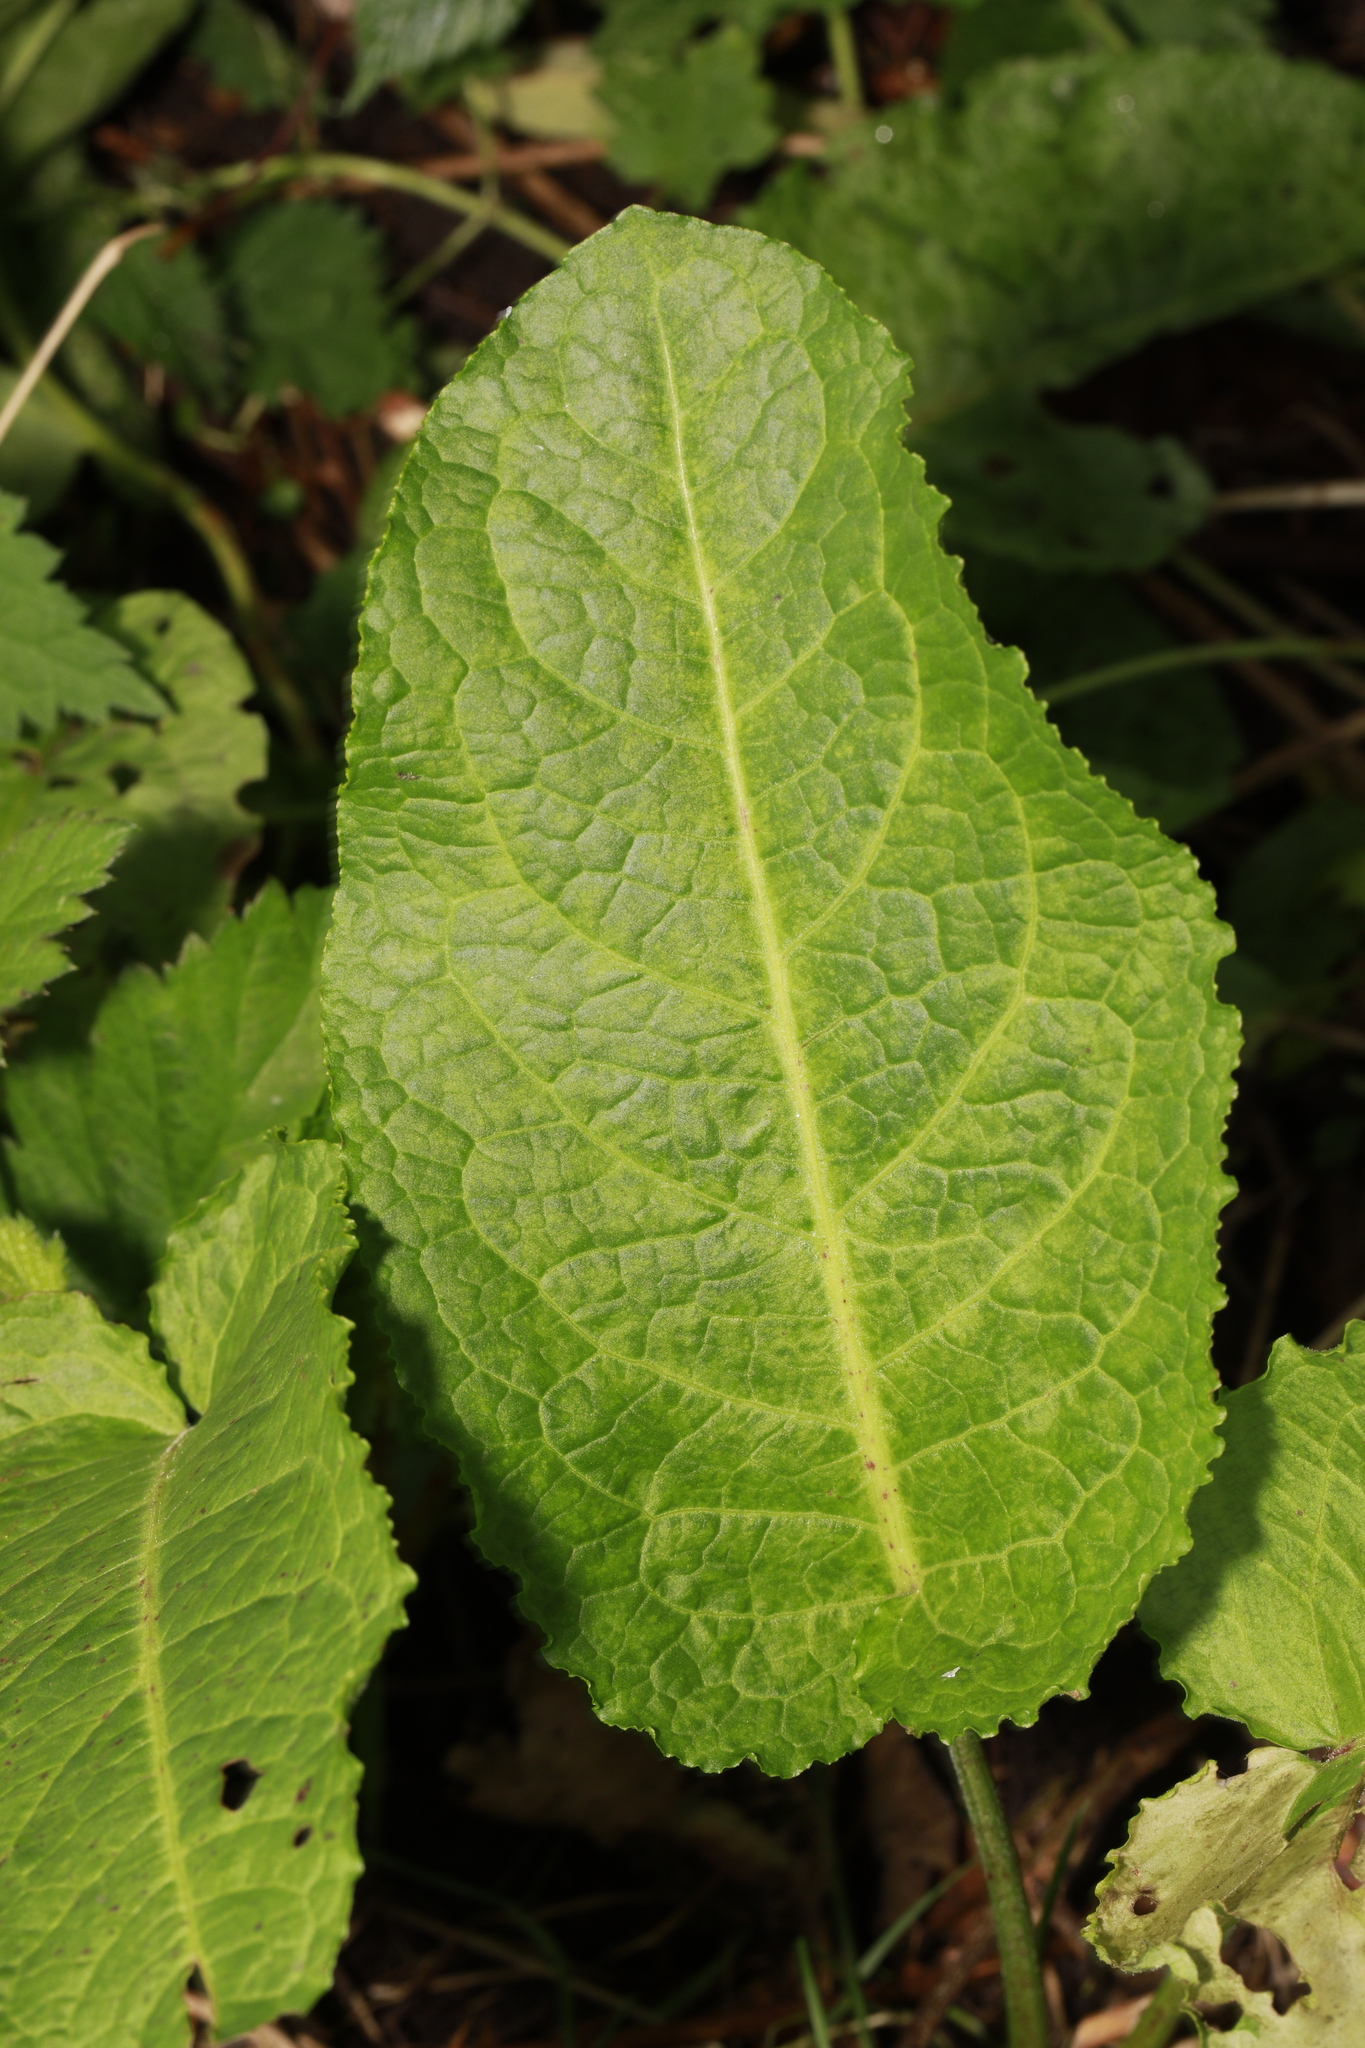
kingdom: Plantae
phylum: Tracheophyta
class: Magnoliopsida
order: Caryophyllales
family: Polygonaceae
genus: Rumex
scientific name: Rumex obtusifolius
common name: Bitter dock
